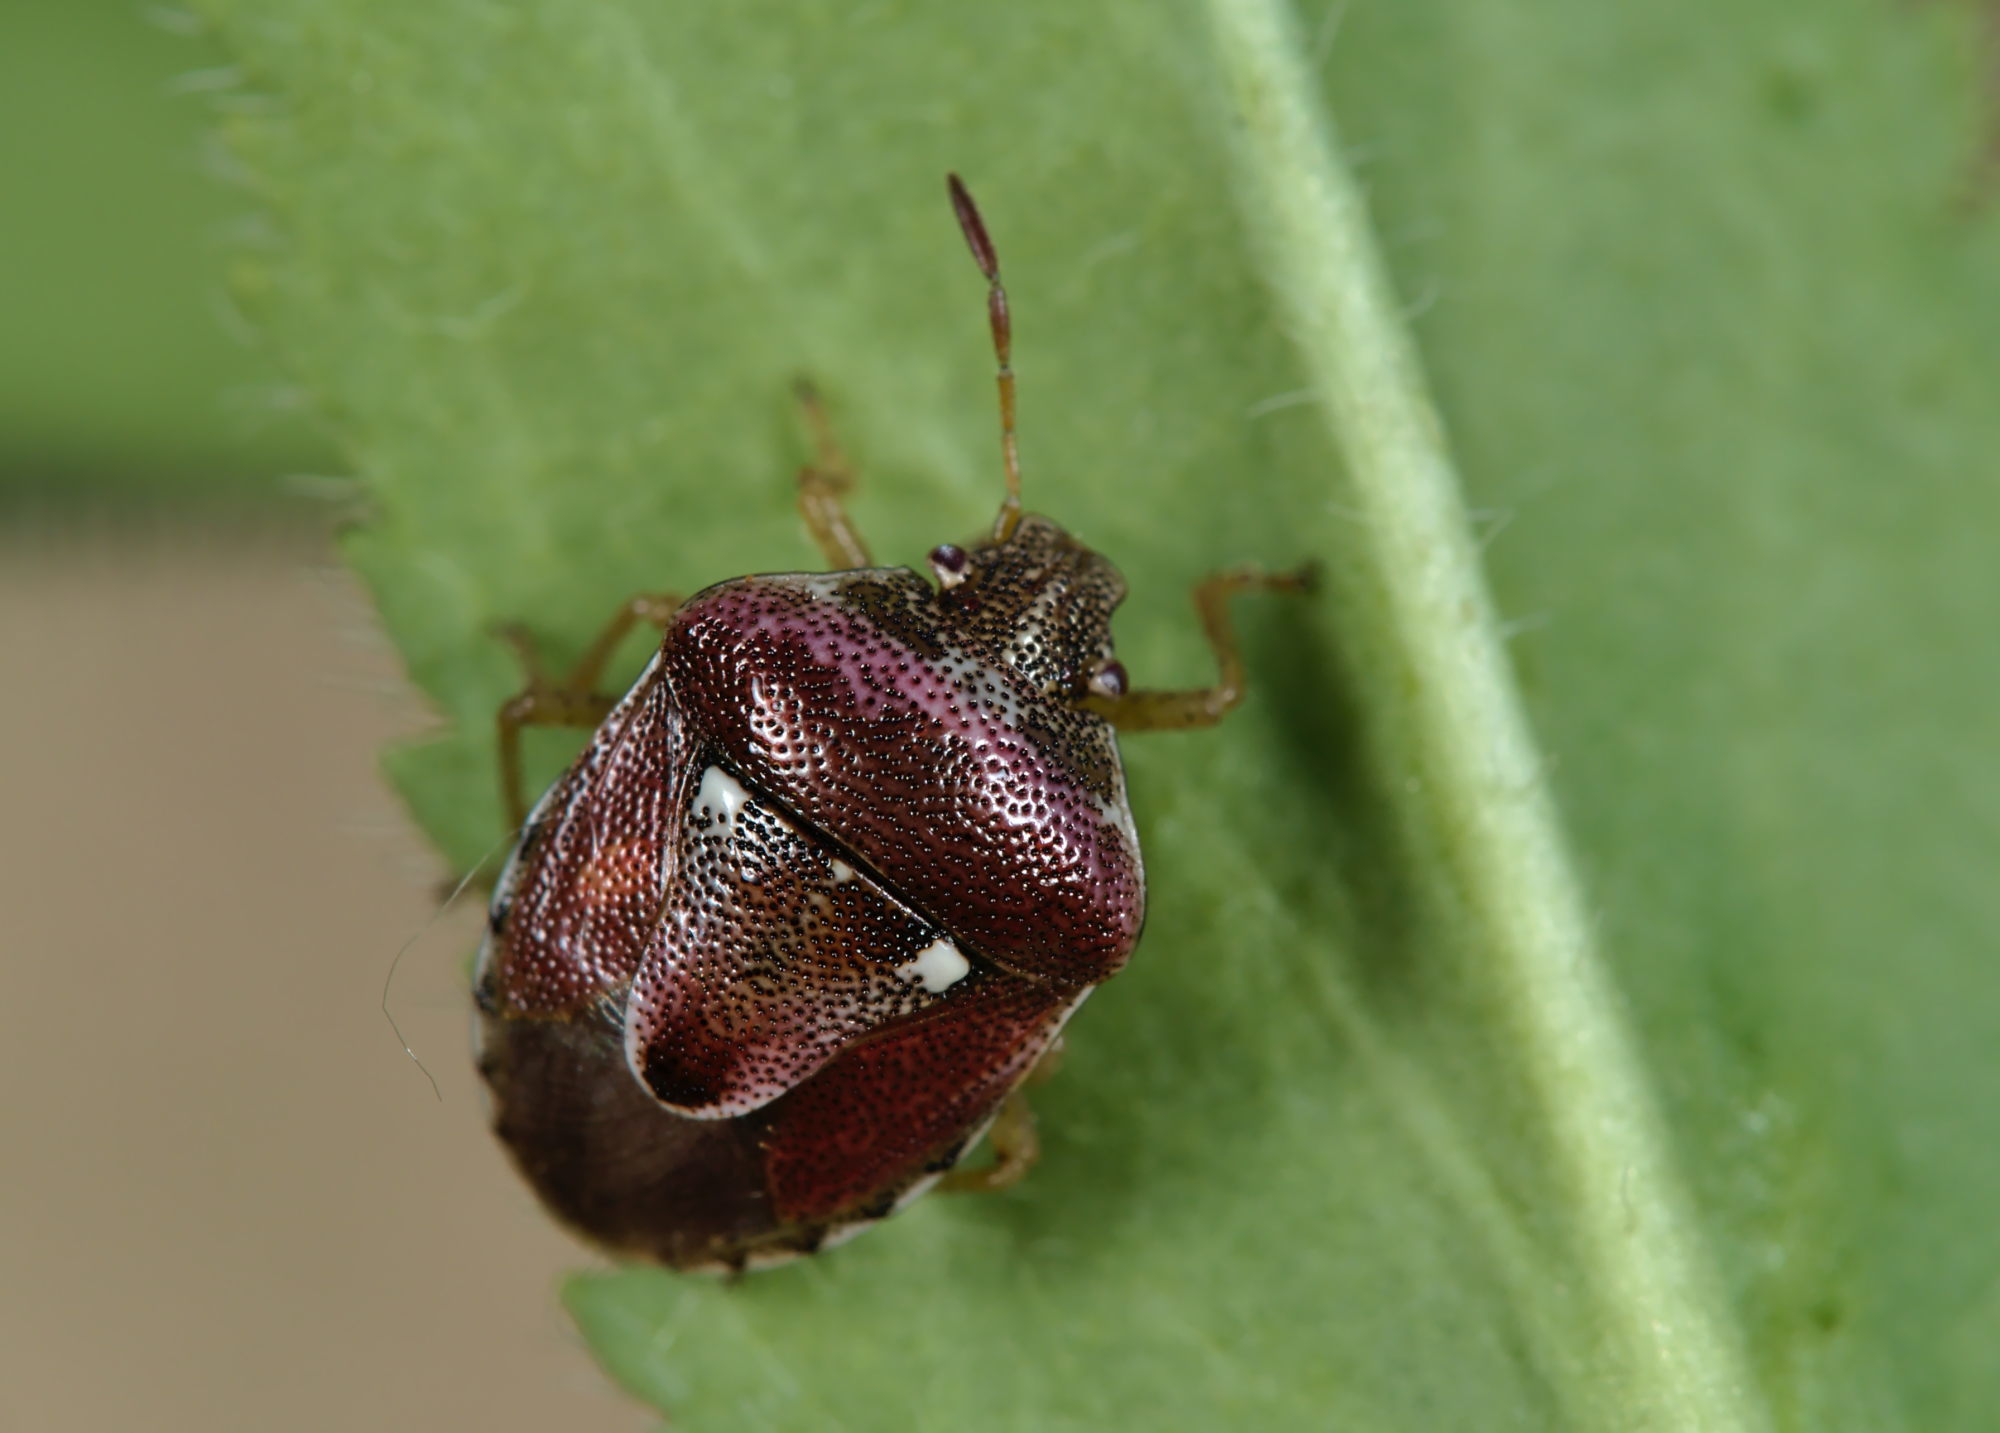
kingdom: Animalia
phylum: Arthropoda
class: Insecta
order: Hemiptera
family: Pentatomidae
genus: Stagonomus
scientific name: Stagonomus bipunctatus
